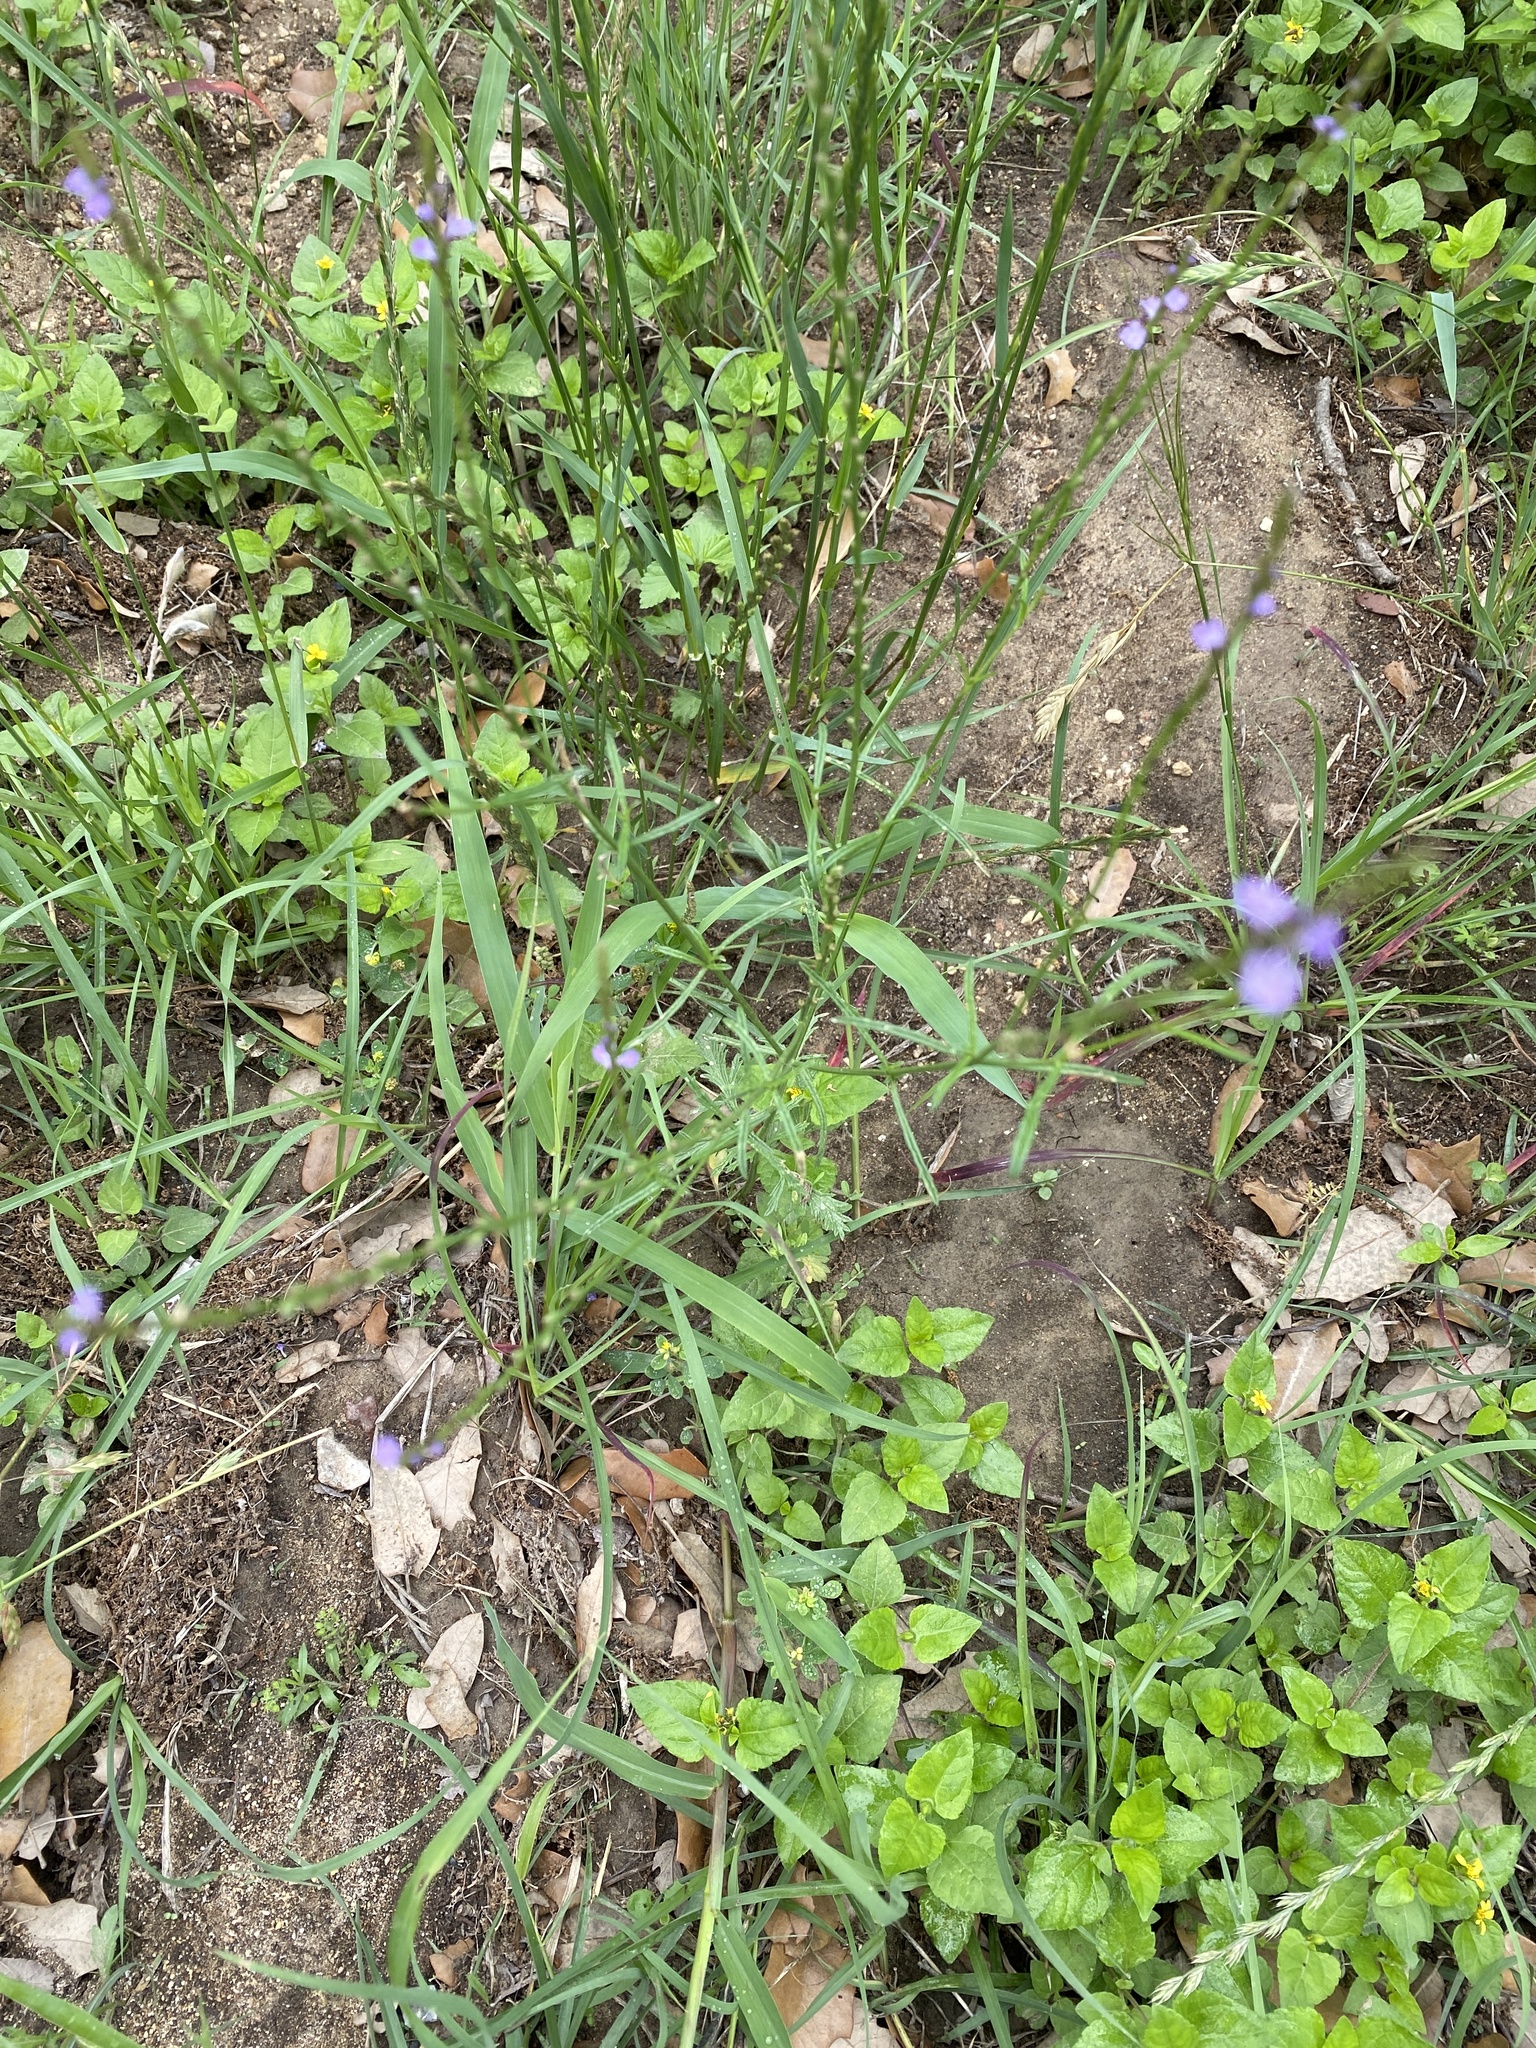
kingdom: Plantae
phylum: Tracheophyta
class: Magnoliopsida
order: Lamiales
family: Verbenaceae
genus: Verbena
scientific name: Verbena halei
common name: Texas vervain
